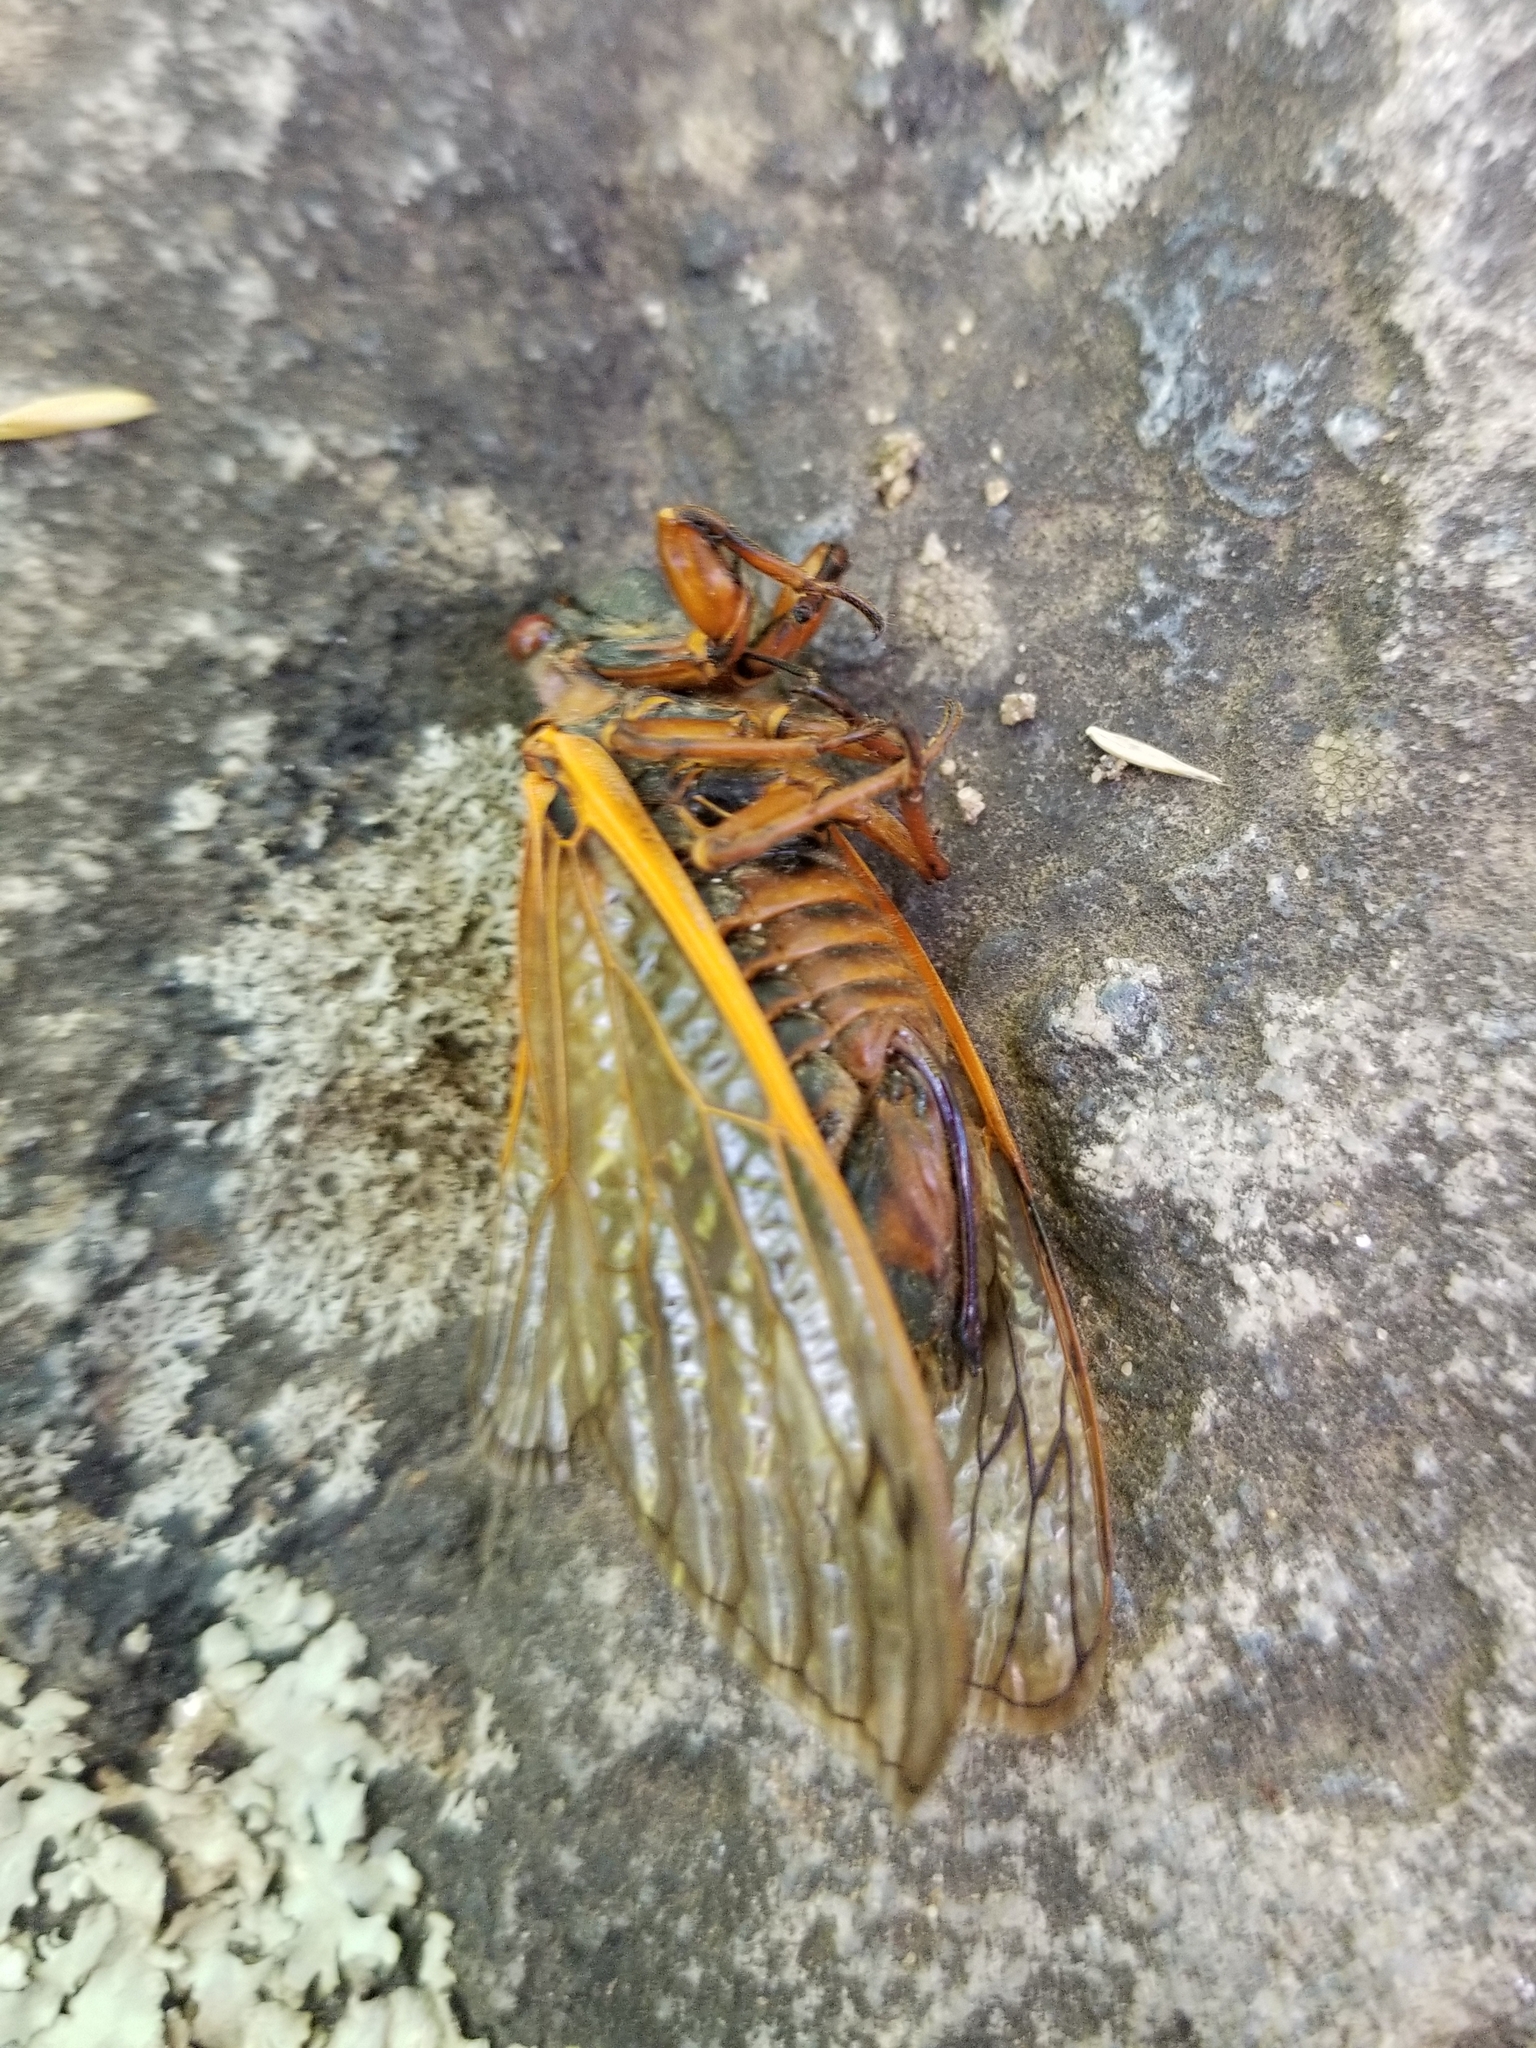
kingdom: Animalia
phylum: Arthropoda
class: Insecta
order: Hemiptera
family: Cicadidae
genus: Magicicada
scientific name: Magicicada septendecim
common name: Periodical cicada
